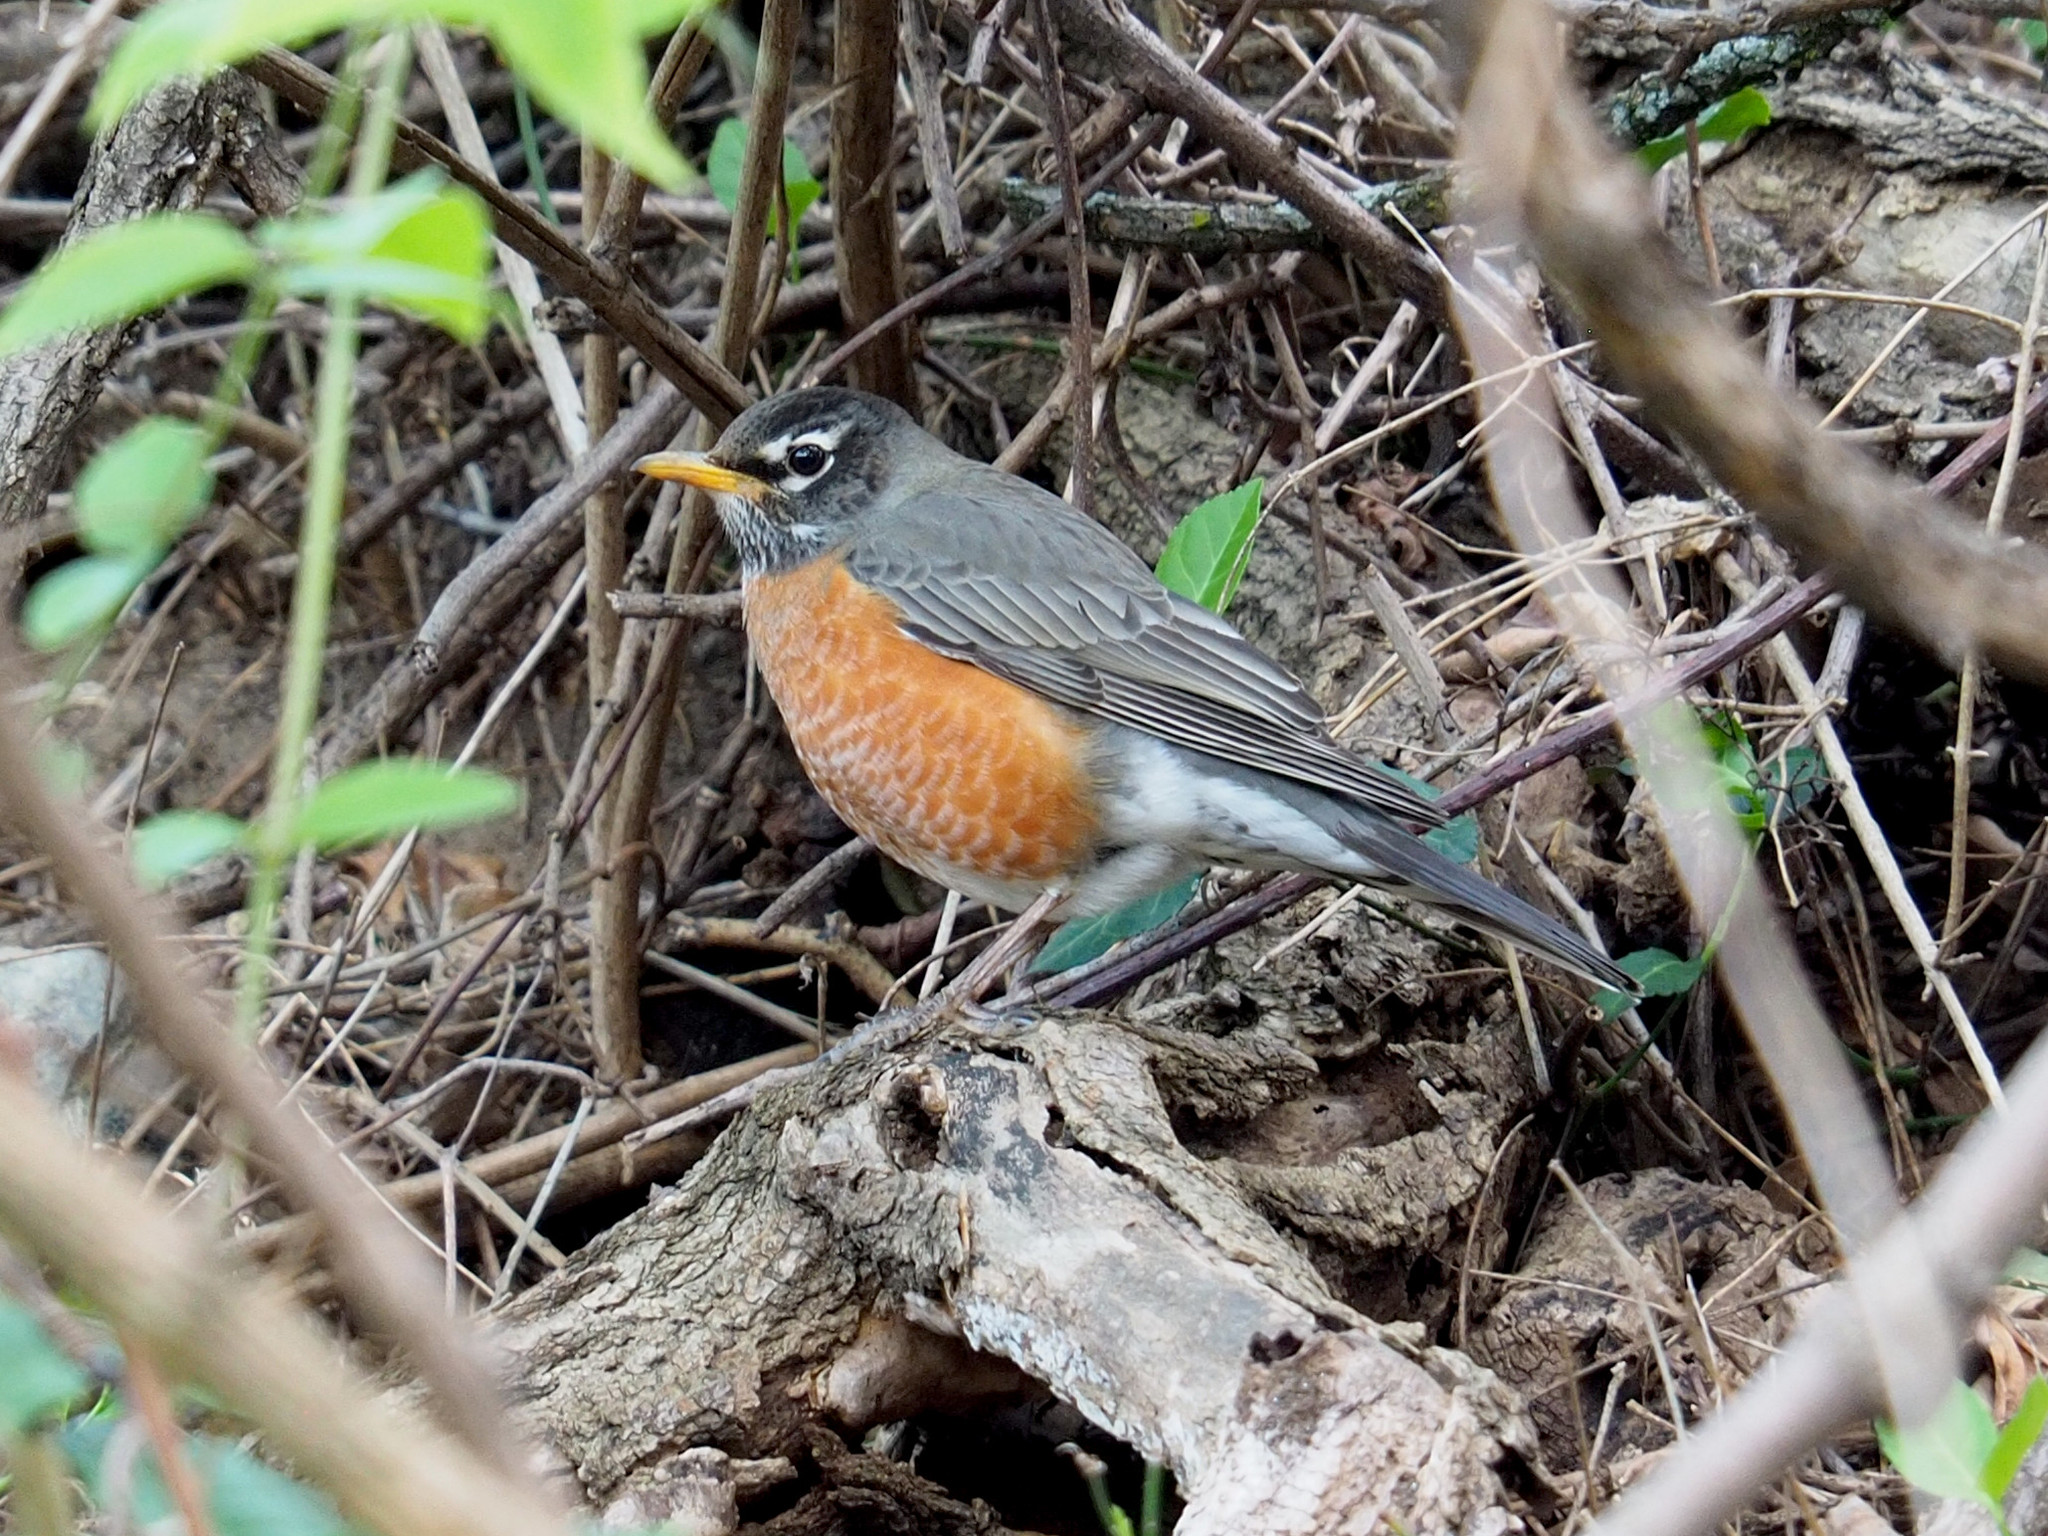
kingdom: Animalia
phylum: Chordata
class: Aves
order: Passeriformes
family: Turdidae
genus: Turdus
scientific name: Turdus migratorius
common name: American robin
